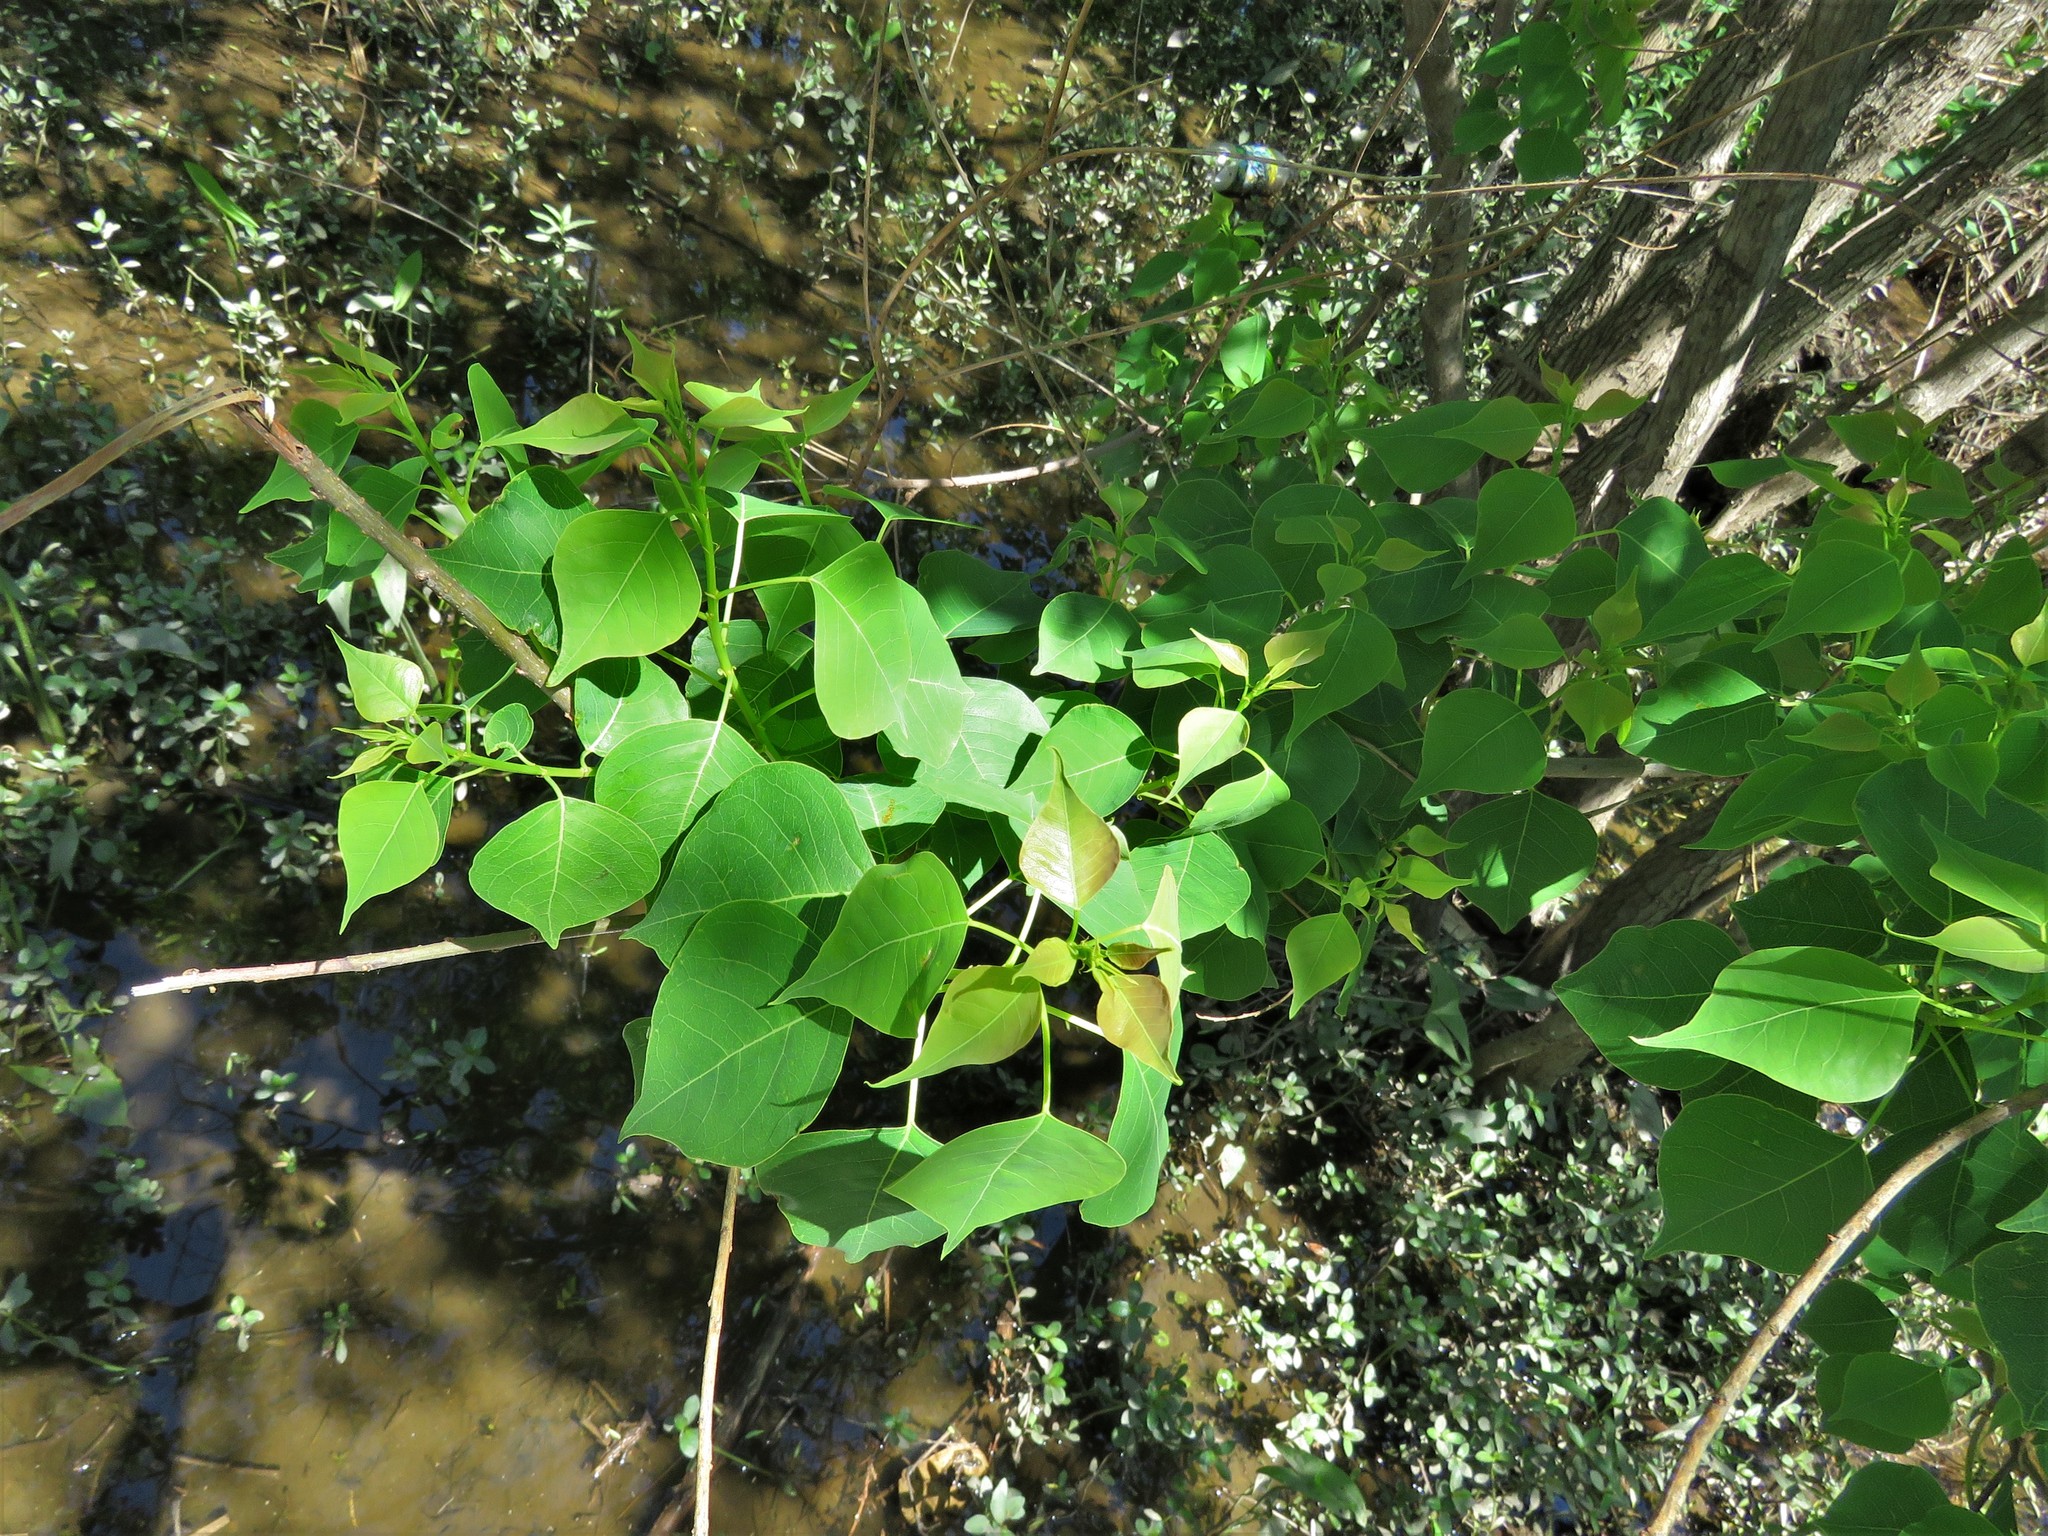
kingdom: Plantae
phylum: Tracheophyta
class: Magnoliopsida
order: Malpighiales
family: Euphorbiaceae
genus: Triadica
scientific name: Triadica sebifera
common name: Chinese tallow
